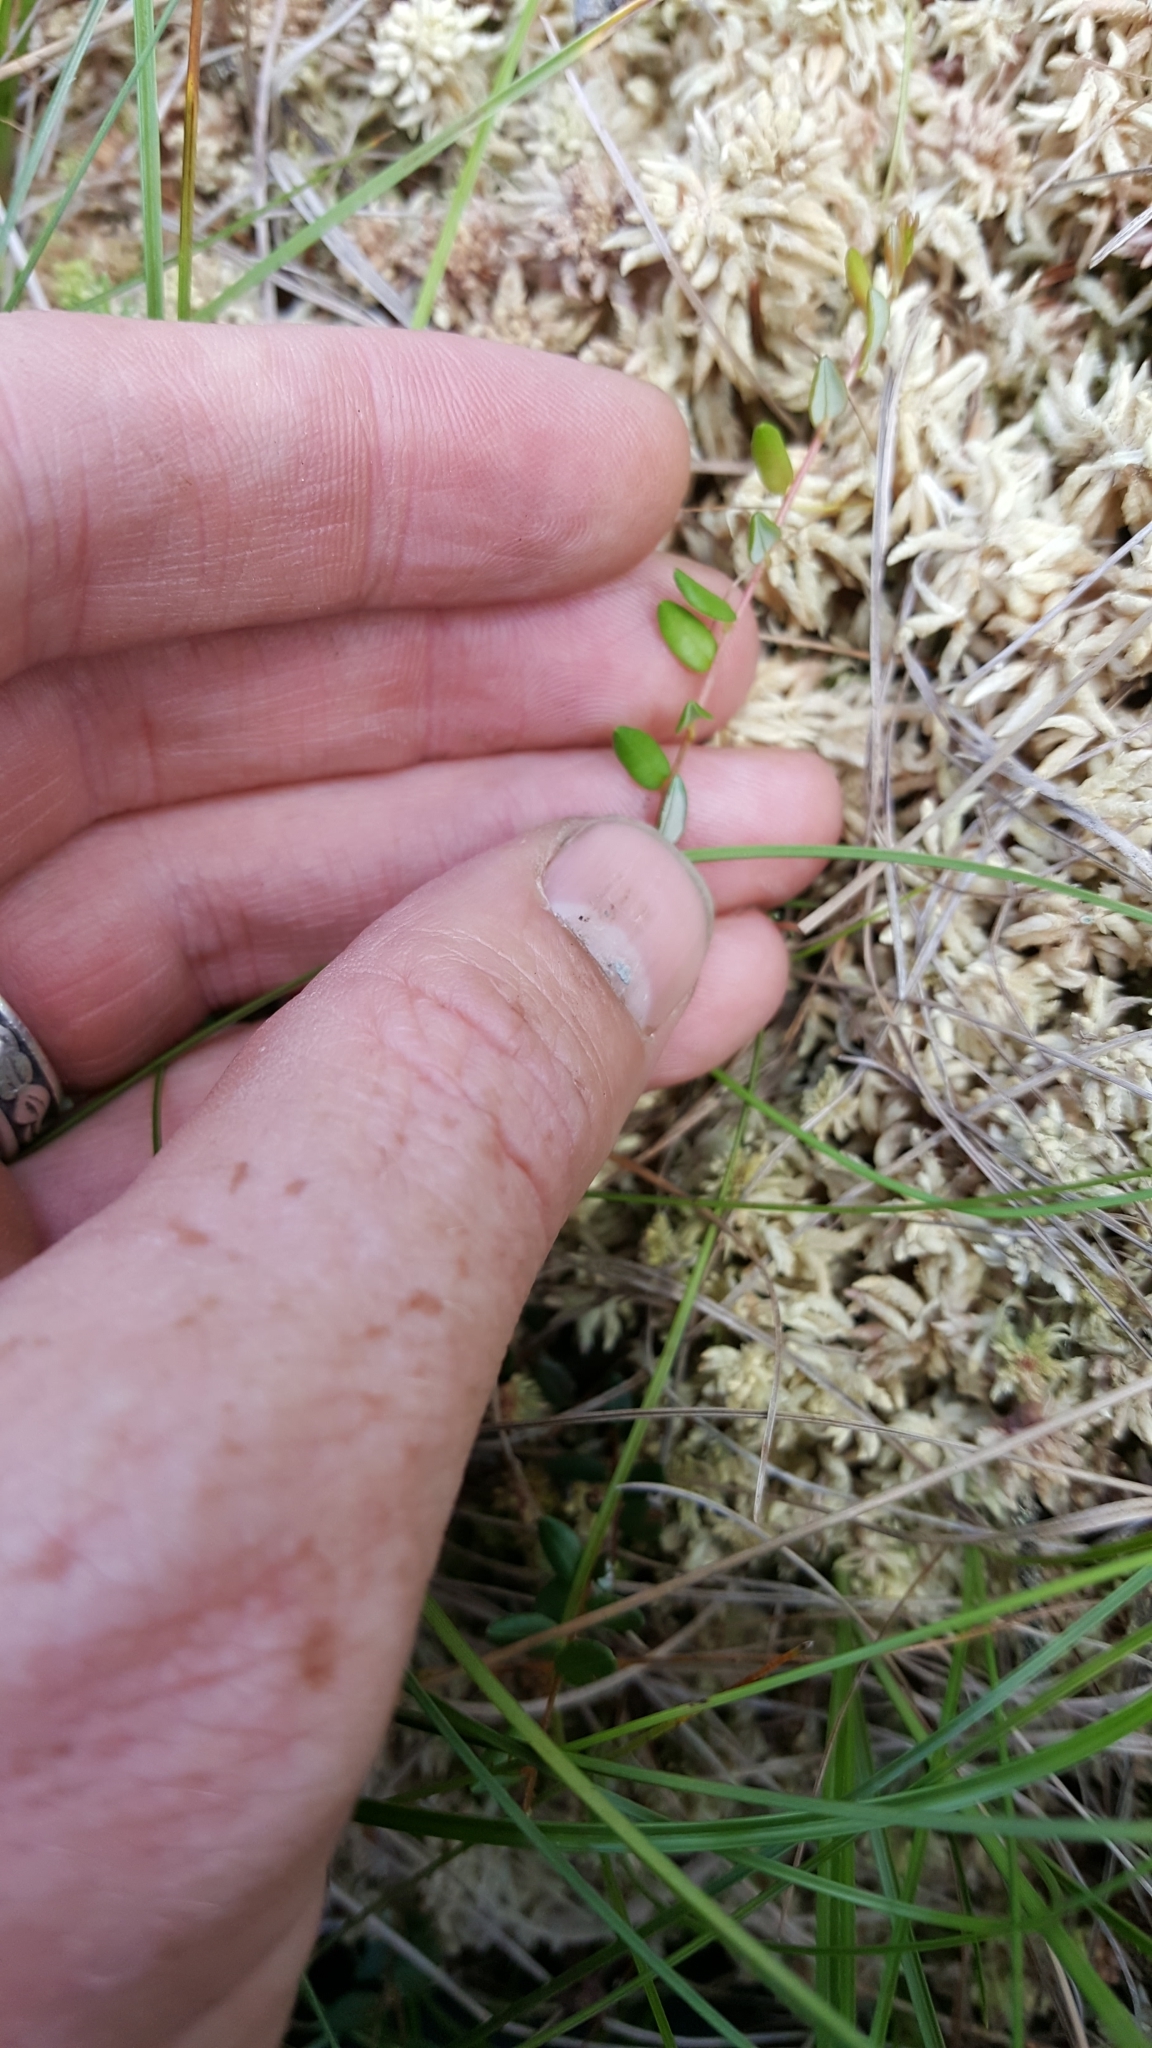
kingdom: Plantae
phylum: Tracheophyta
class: Magnoliopsida
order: Ericales
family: Ericaceae
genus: Vaccinium
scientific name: Vaccinium oxycoccos
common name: Cranberry
